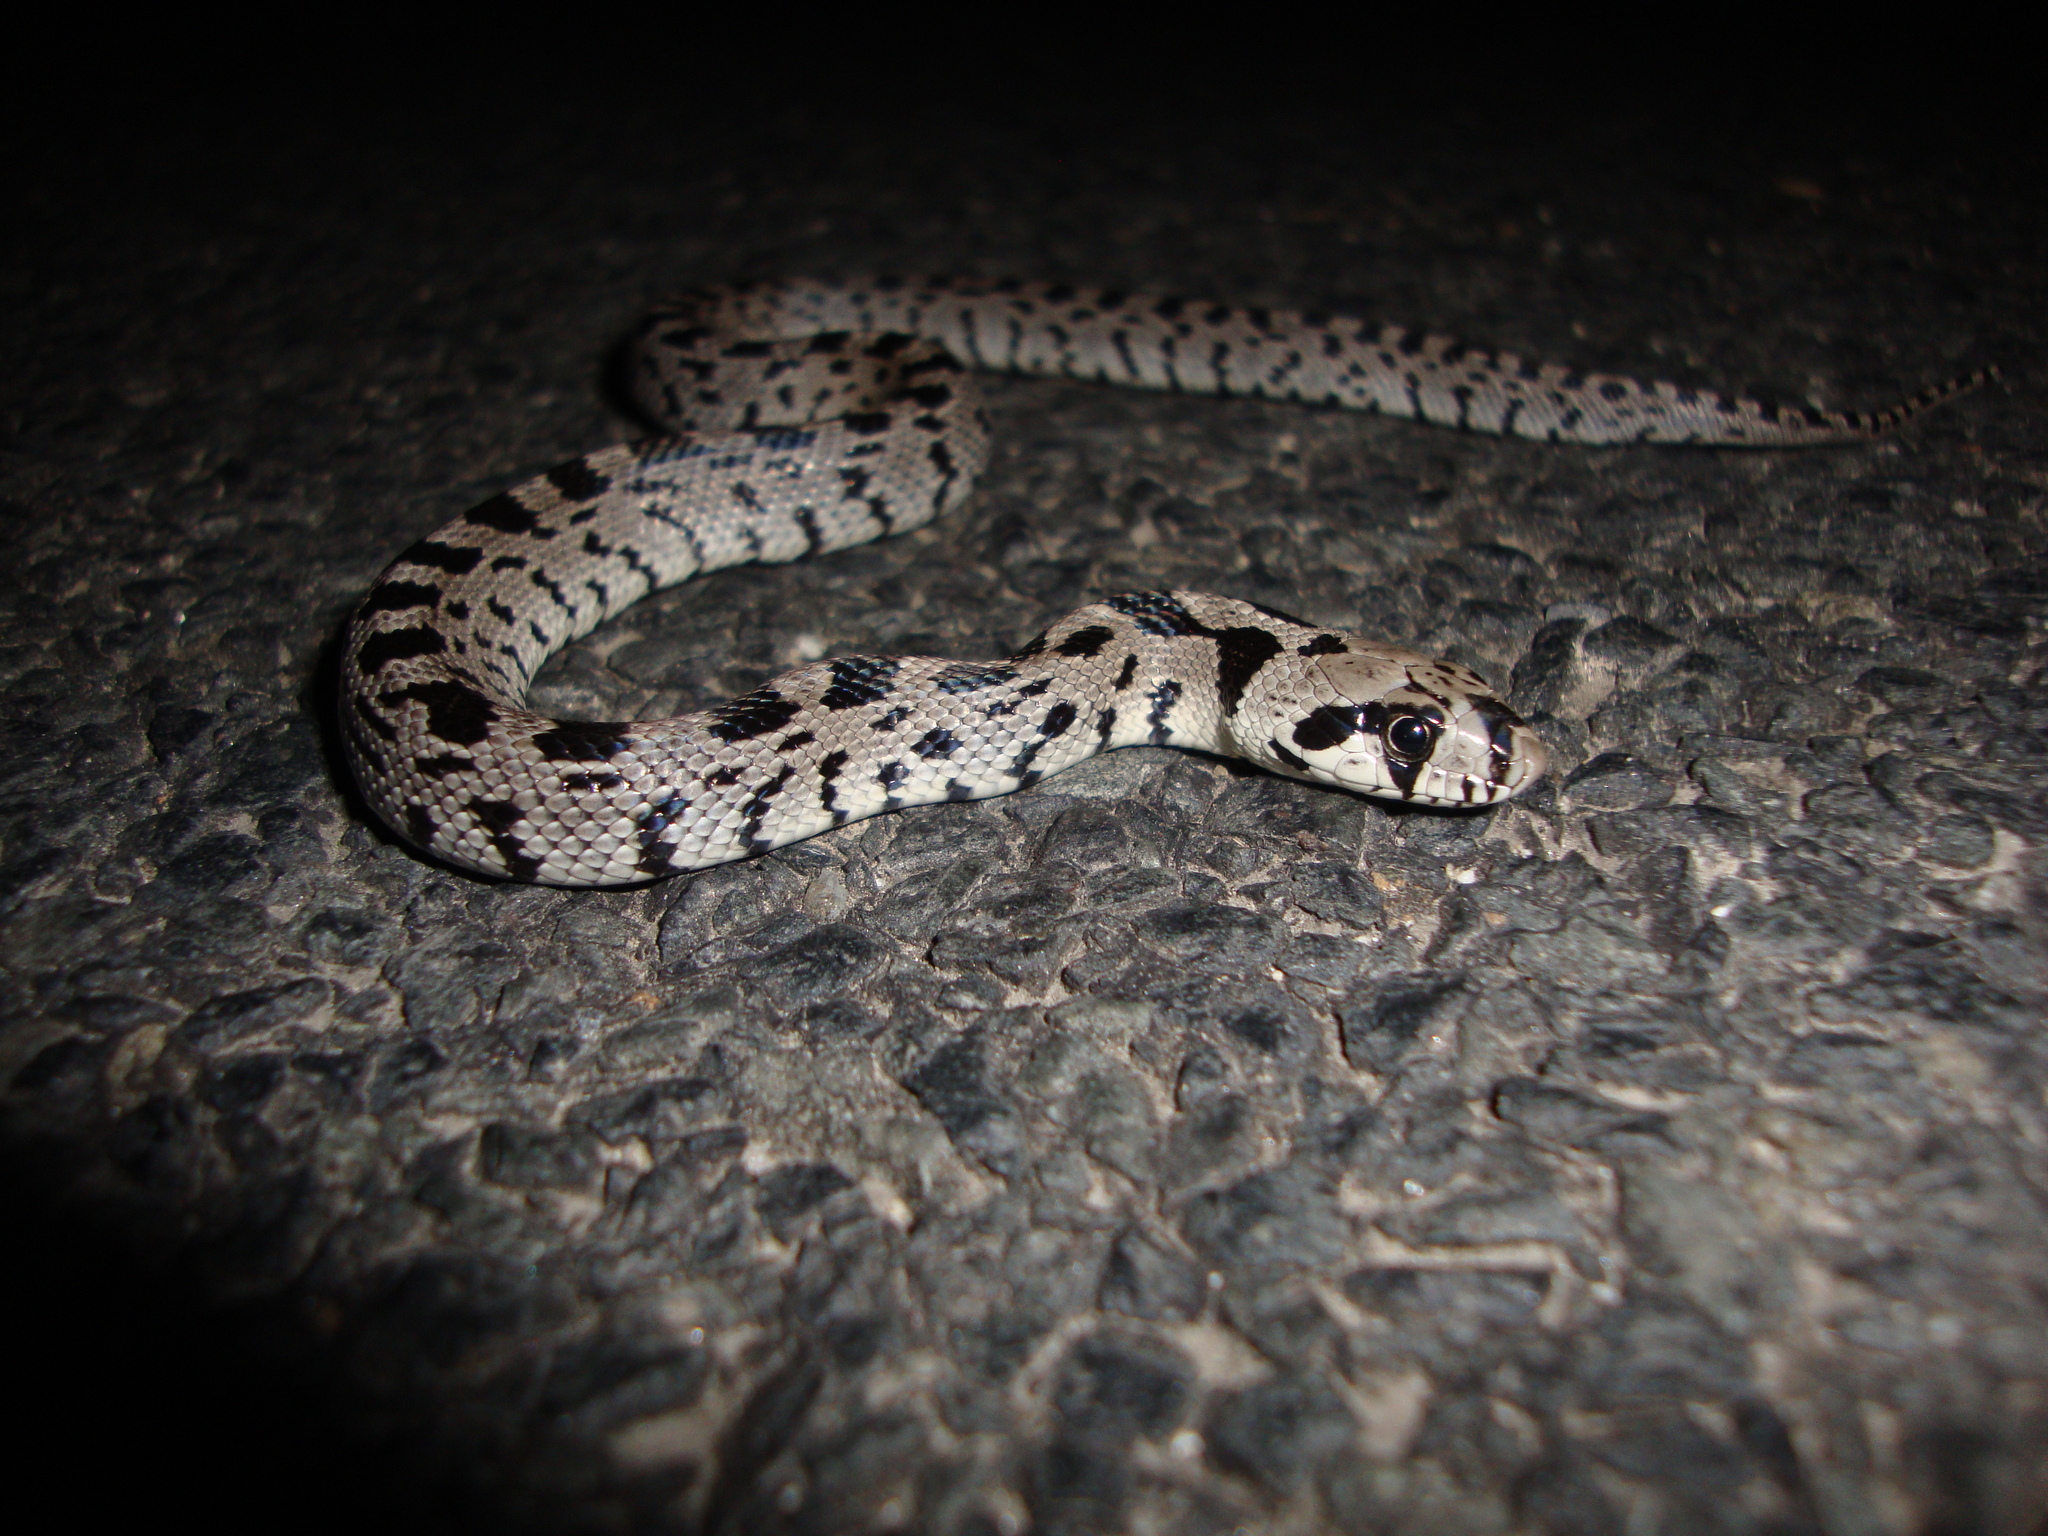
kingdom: Animalia
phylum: Chordata
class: Squamata
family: Colubridae
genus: Zamenis
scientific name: Zamenis scalaris
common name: Ladder snakes
